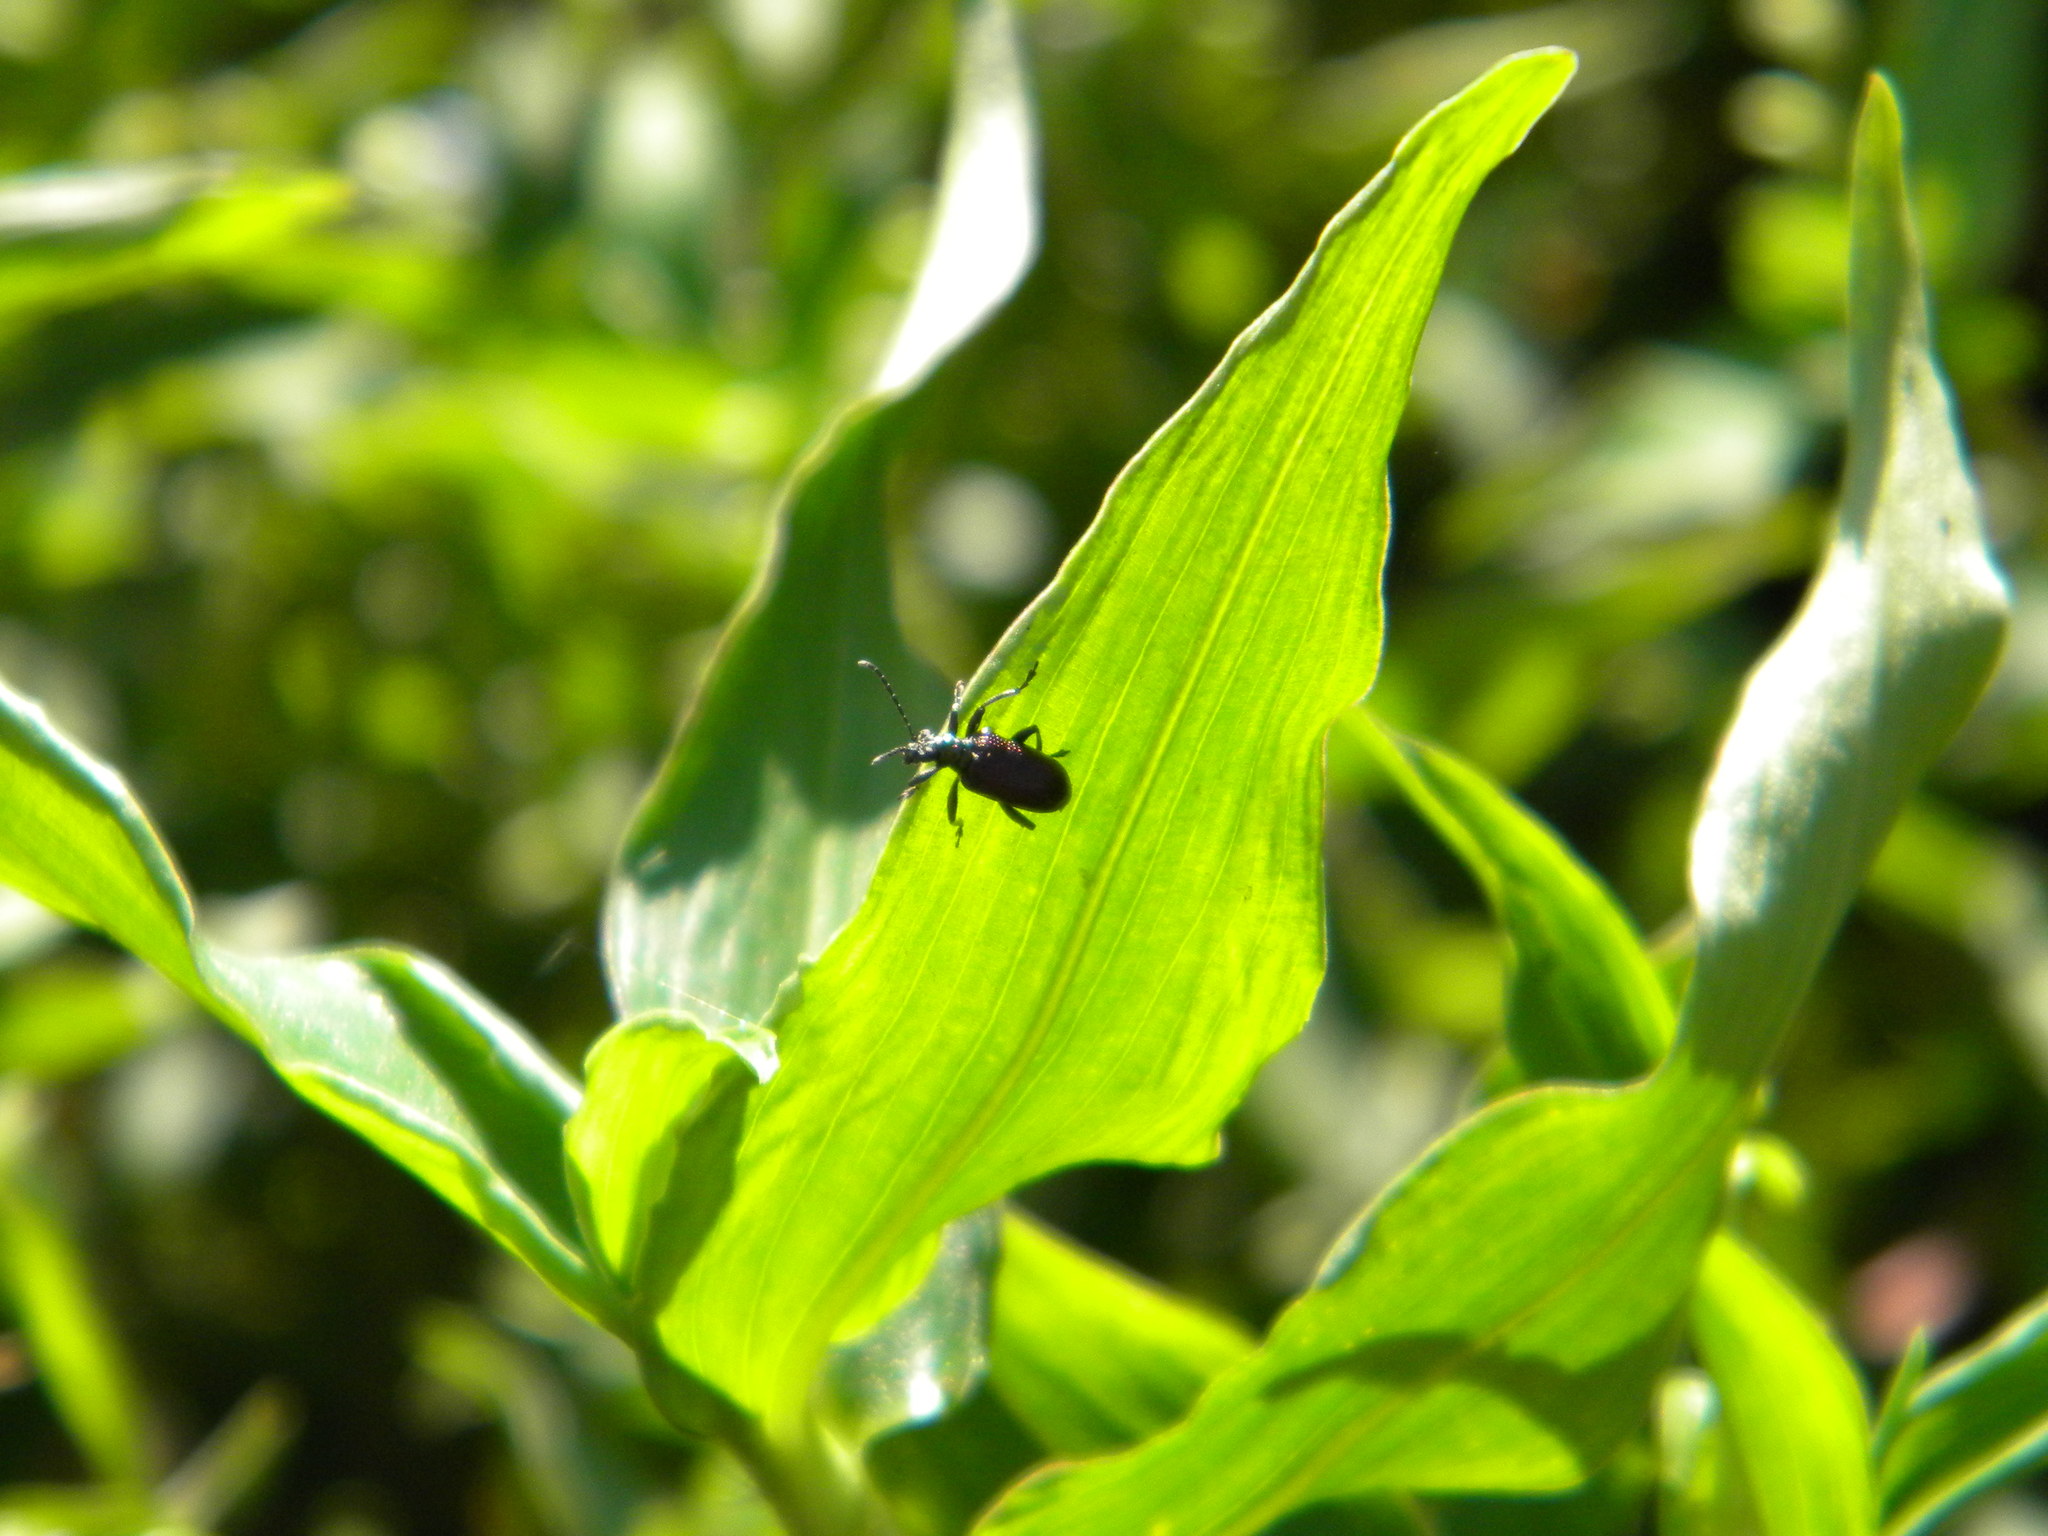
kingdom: Animalia
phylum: Arthropoda
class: Insecta
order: Coleoptera
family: Chrysomelidae
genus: Lema
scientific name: Lema
